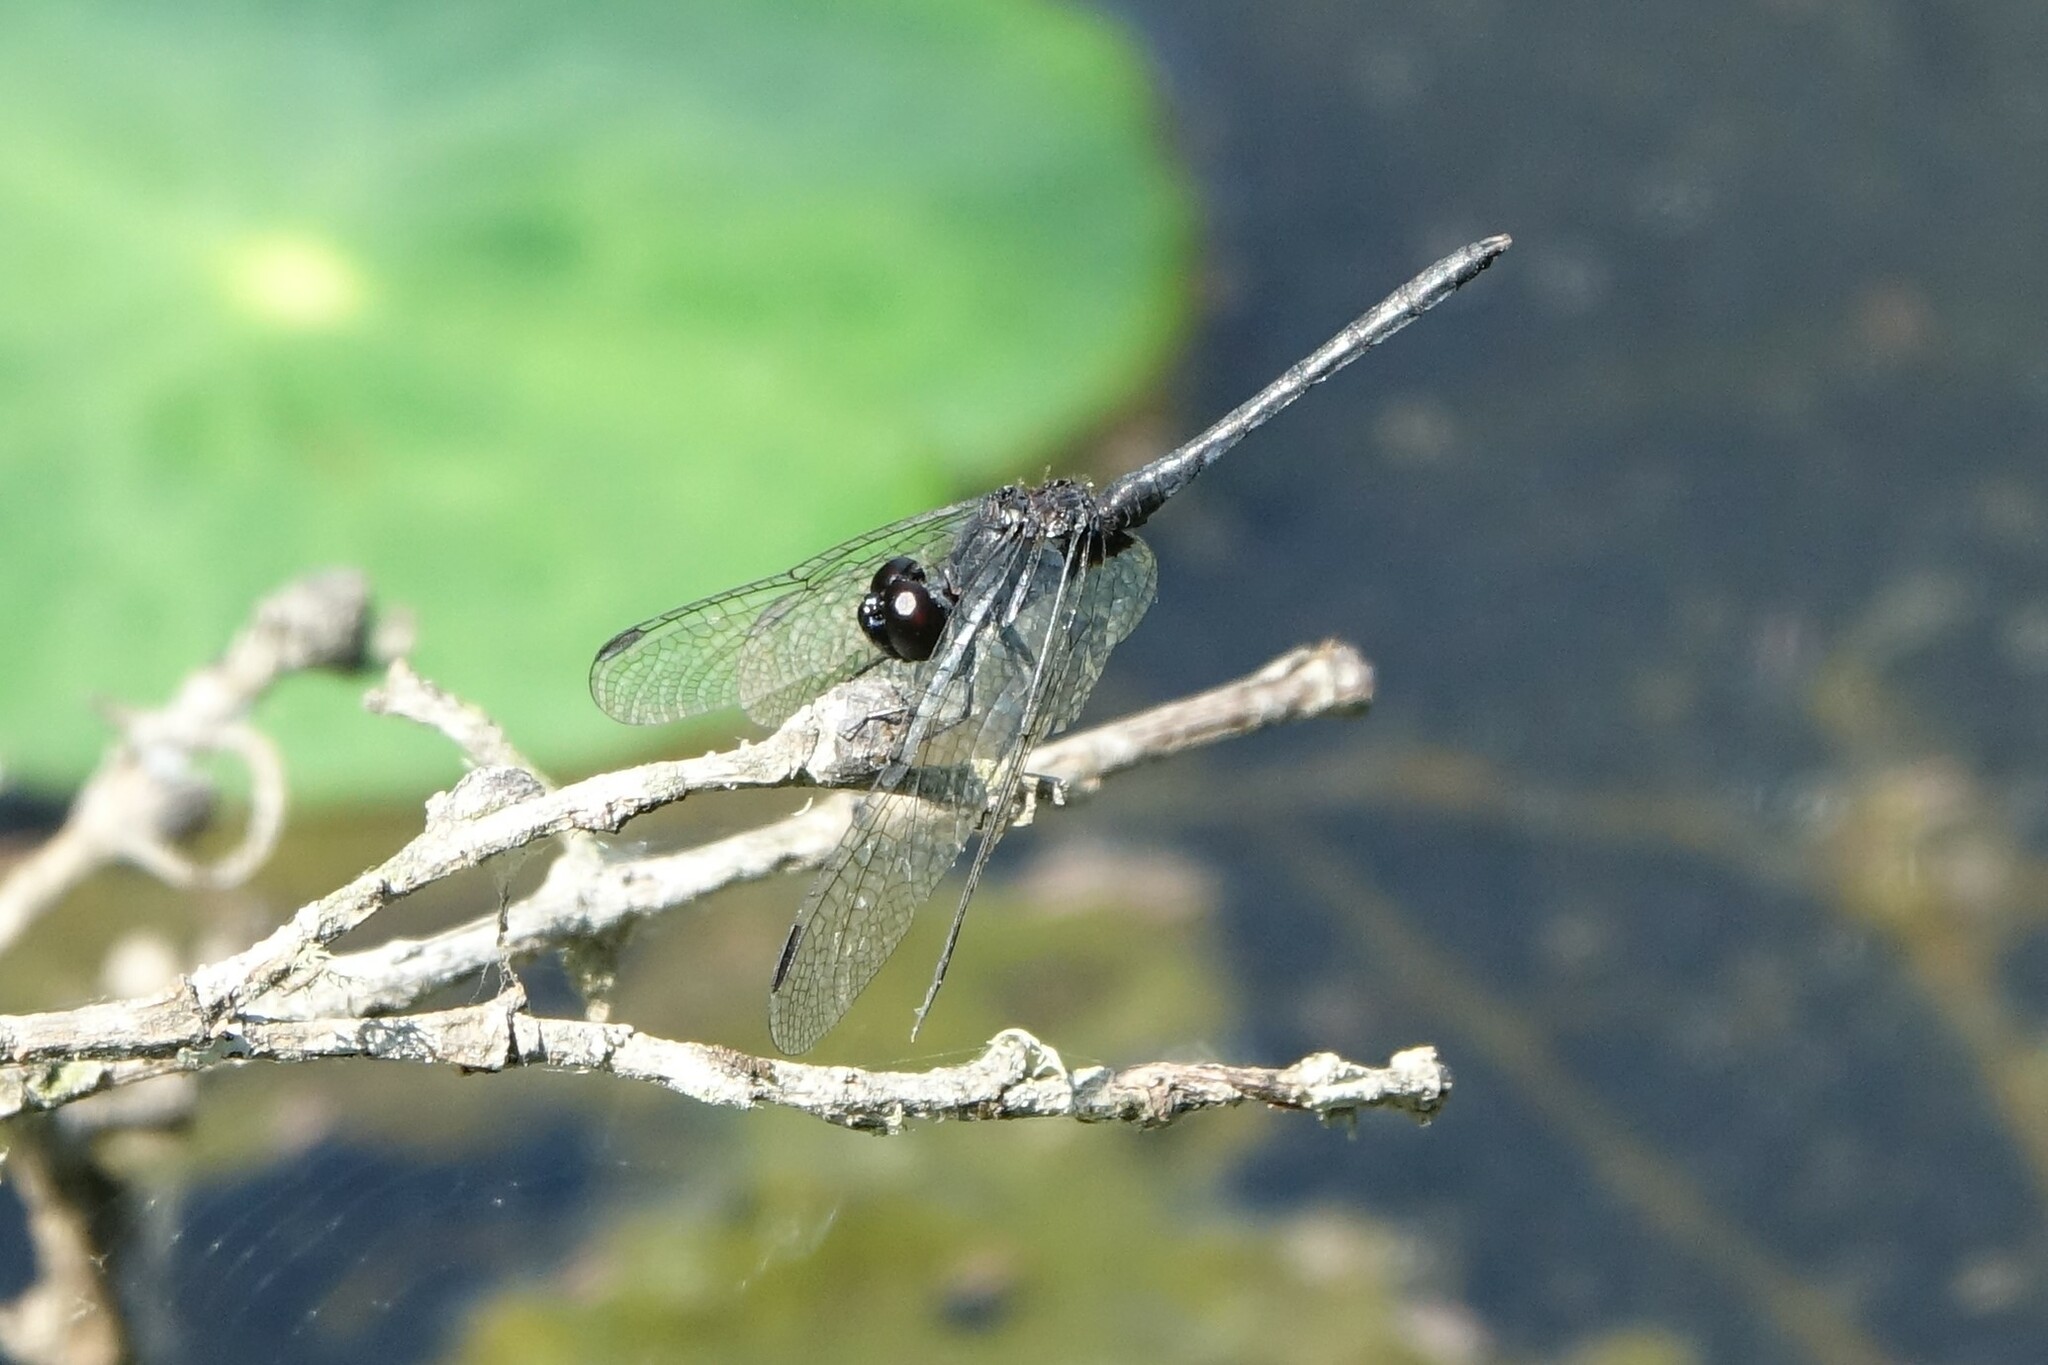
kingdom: Animalia
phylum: Arthropoda
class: Insecta
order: Odonata
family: Libellulidae
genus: Diplacodes
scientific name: Diplacodes lefebvrii
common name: Black percher
